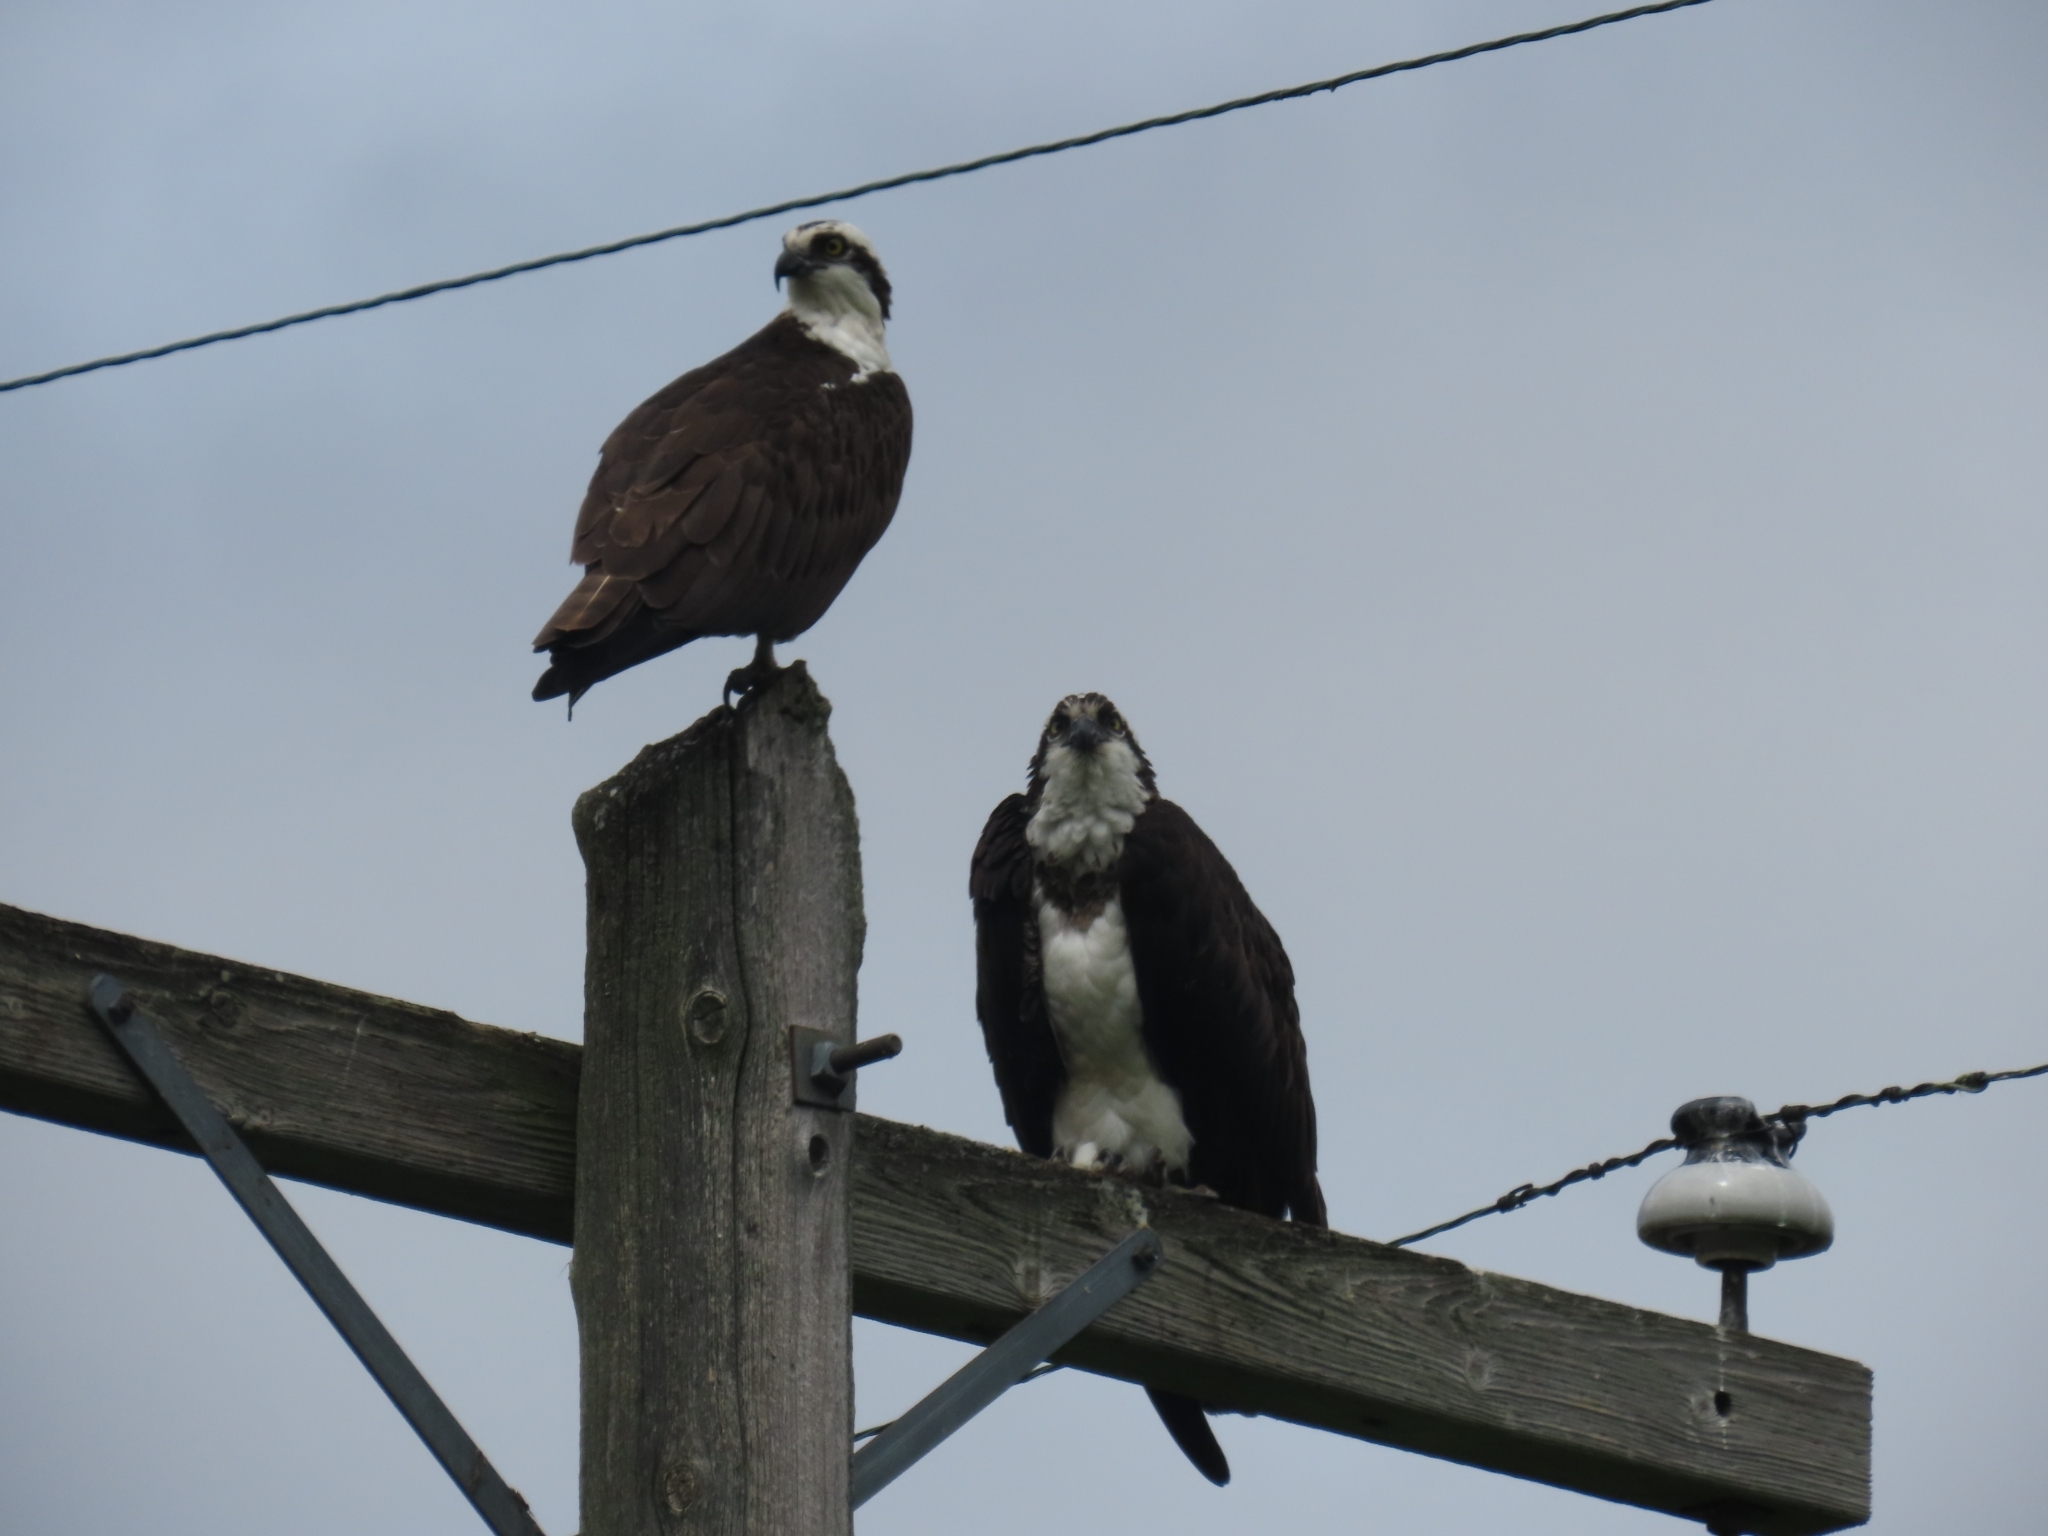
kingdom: Animalia
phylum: Chordata
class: Aves
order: Accipitriformes
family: Pandionidae
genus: Pandion
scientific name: Pandion haliaetus
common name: Osprey
